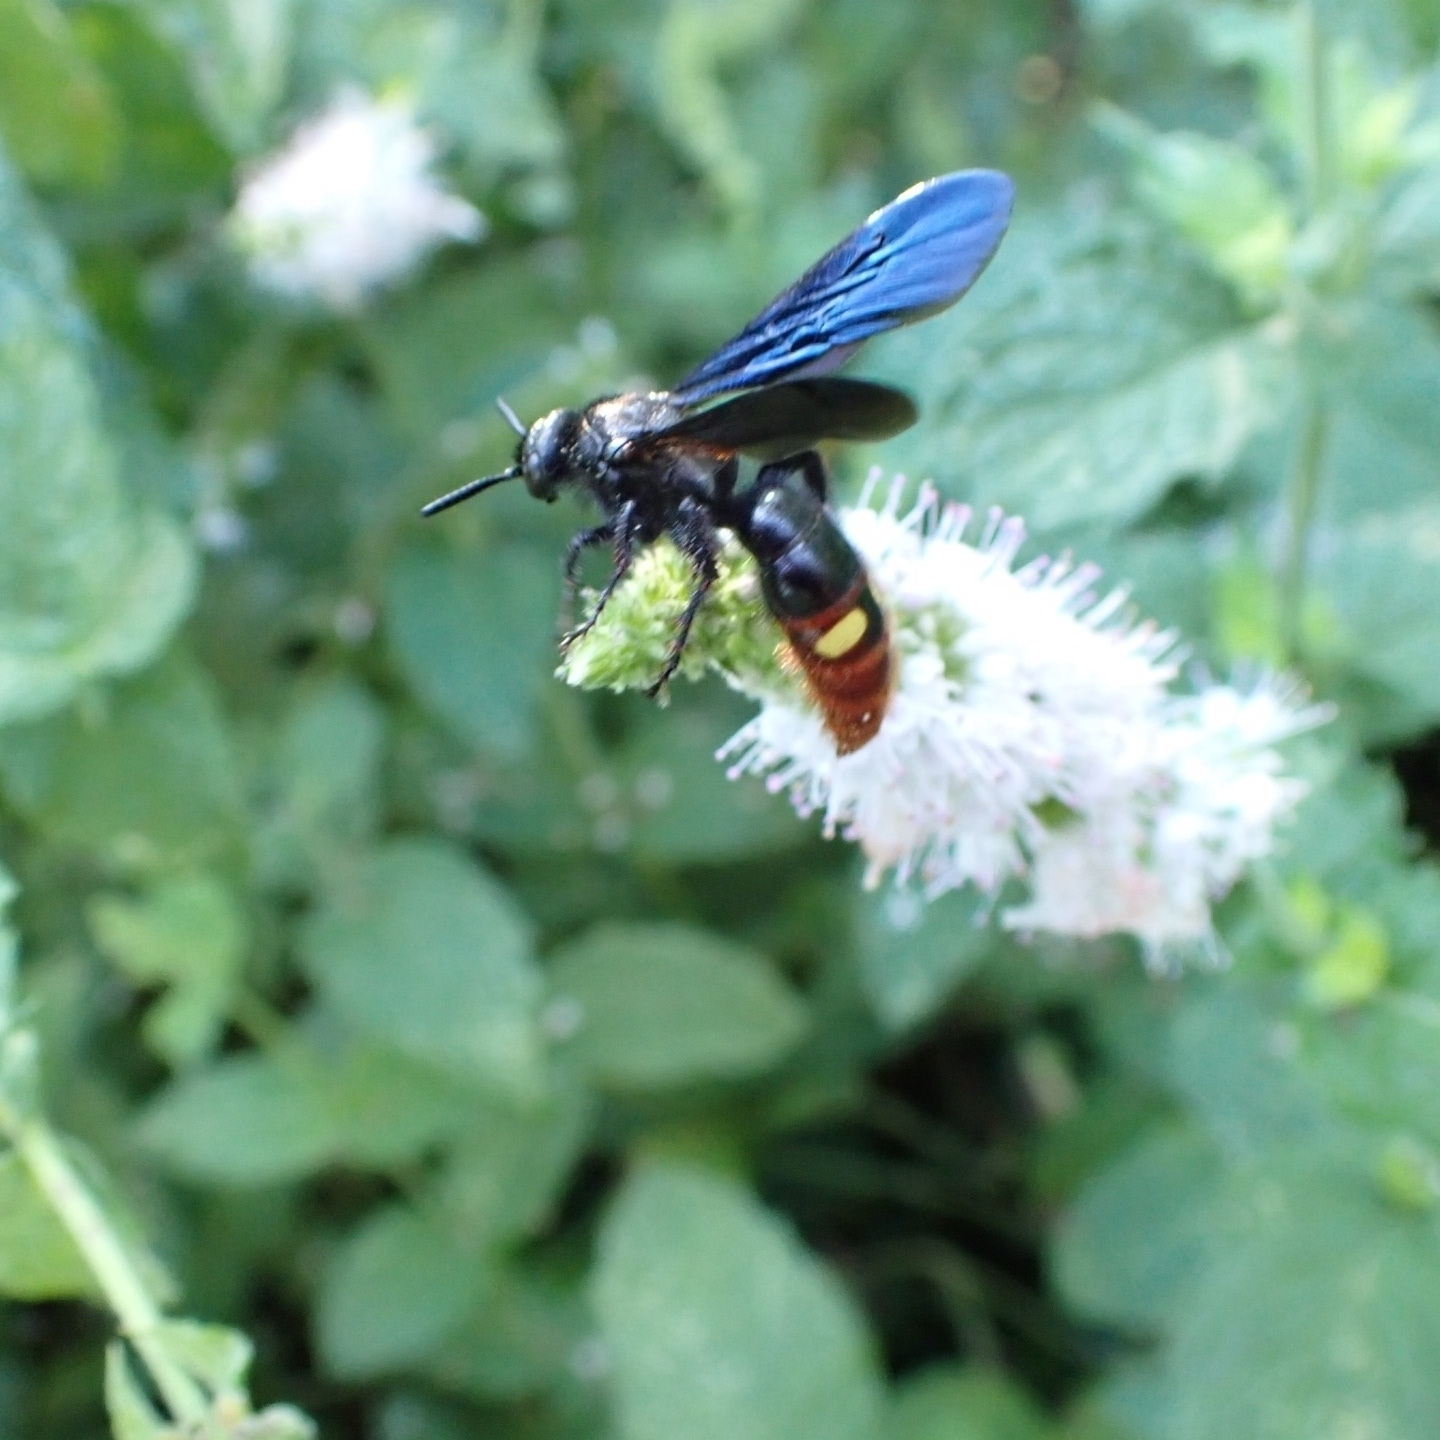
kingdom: Animalia
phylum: Arthropoda
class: Insecta
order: Hymenoptera
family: Scoliidae
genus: Scolia
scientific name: Scolia dubia
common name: Blue-winged scoliid wasp
